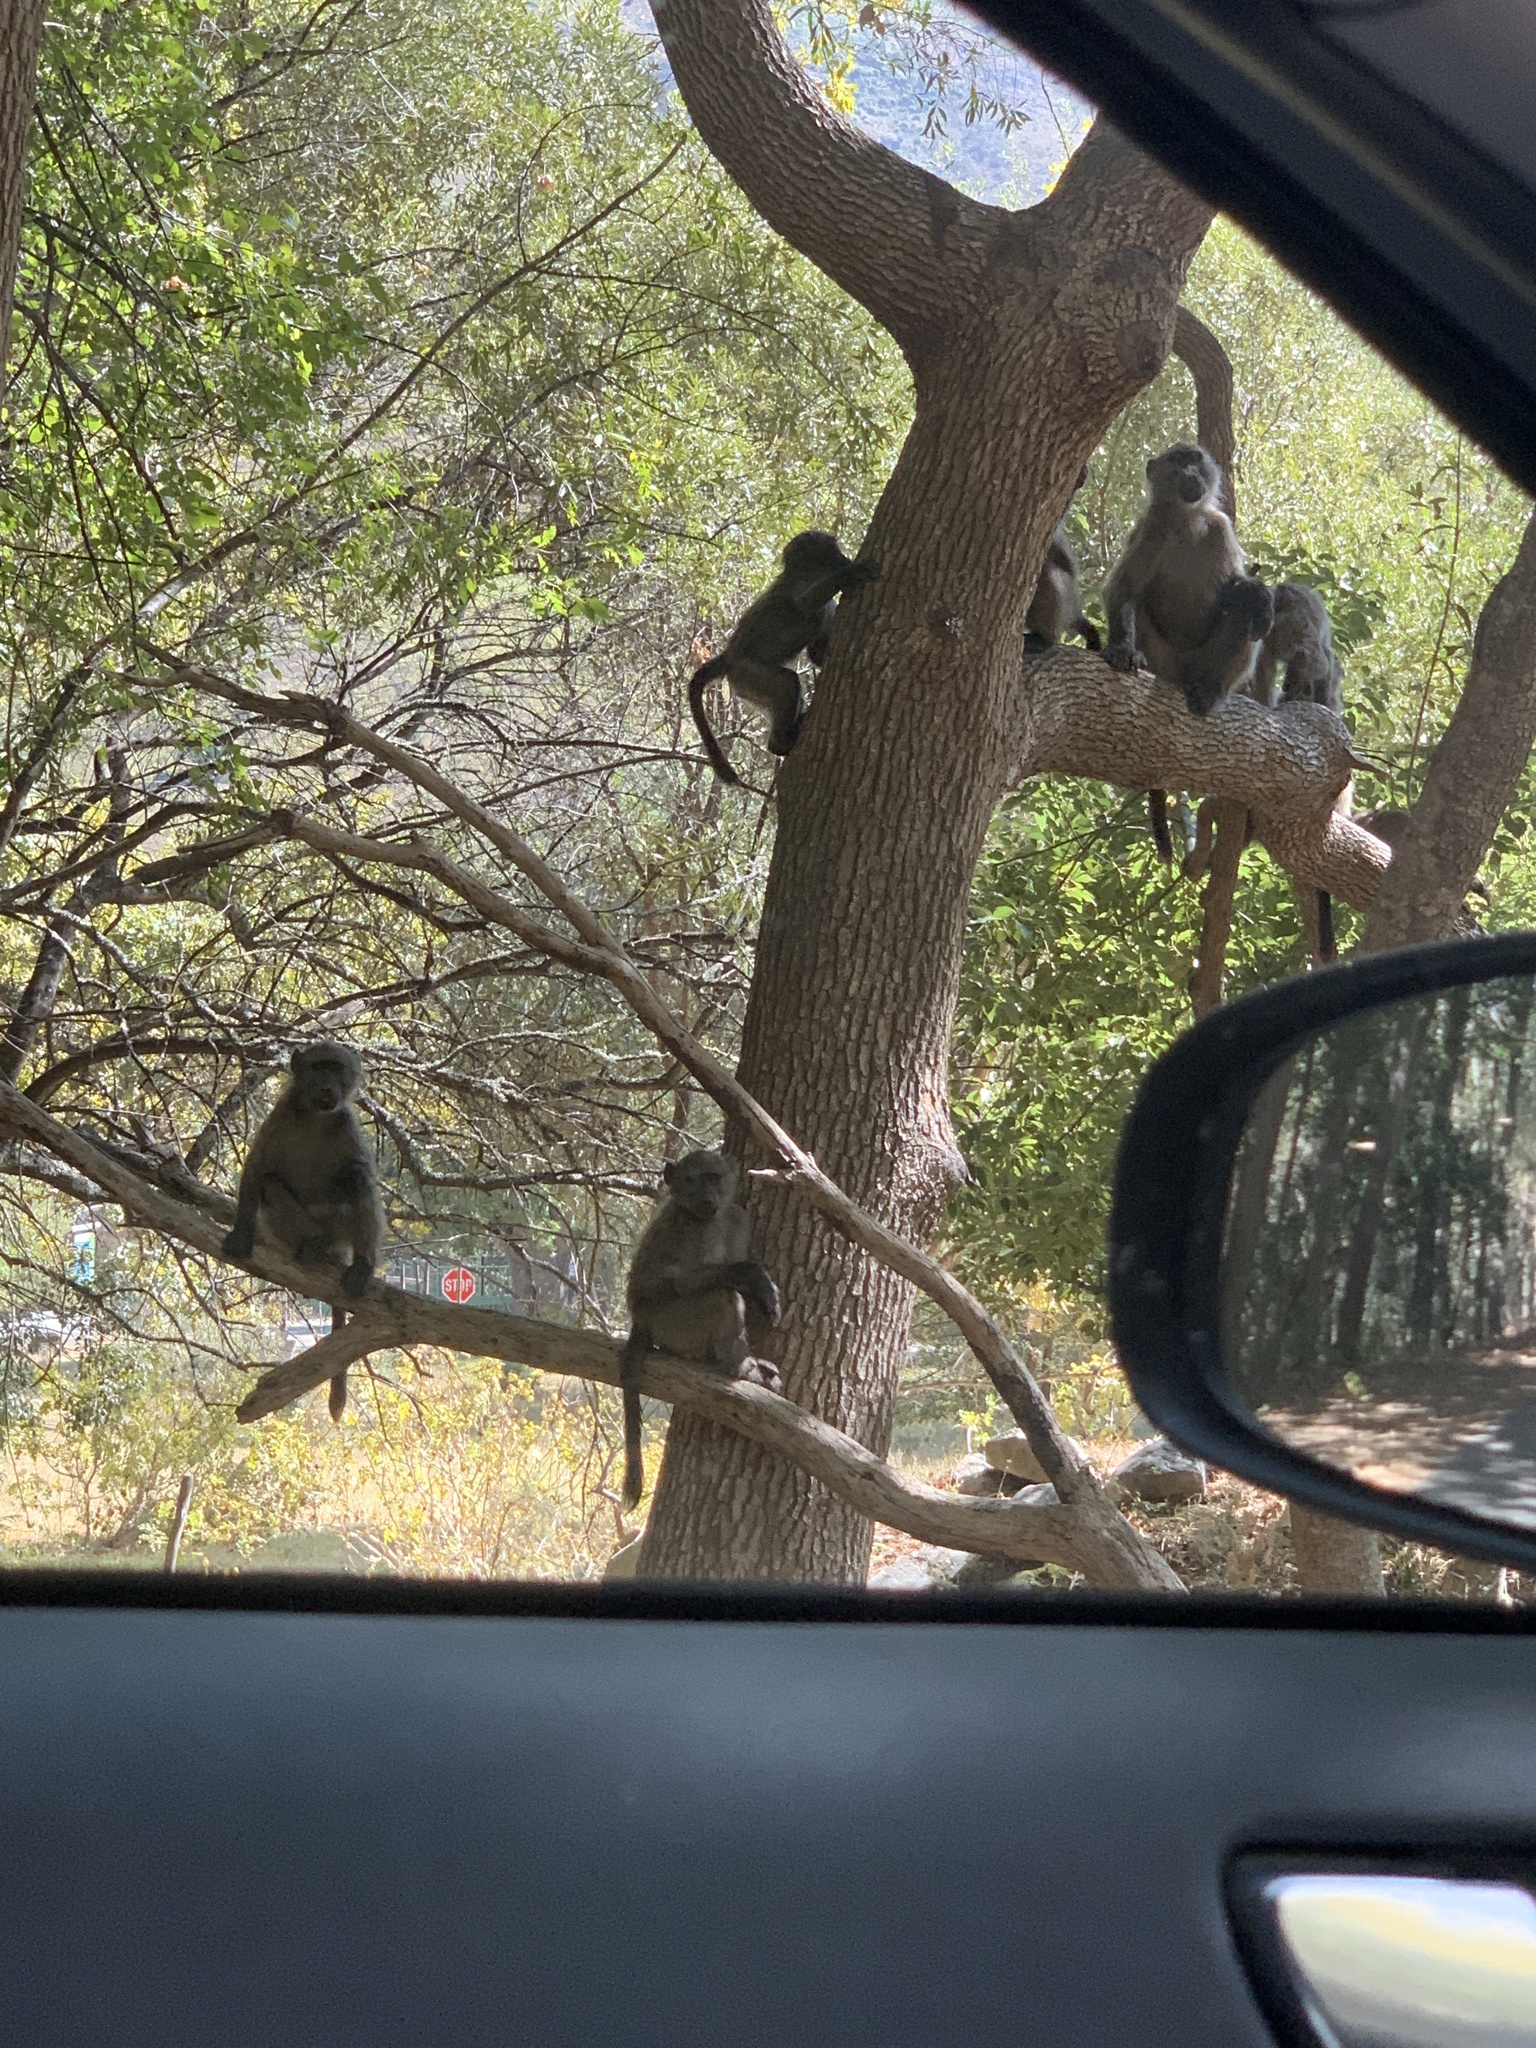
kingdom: Animalia
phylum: Chordata
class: Mammalia
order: Primates
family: Cercopithecidae
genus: Papio
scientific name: Papio ursinus
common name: Chacma baboon
